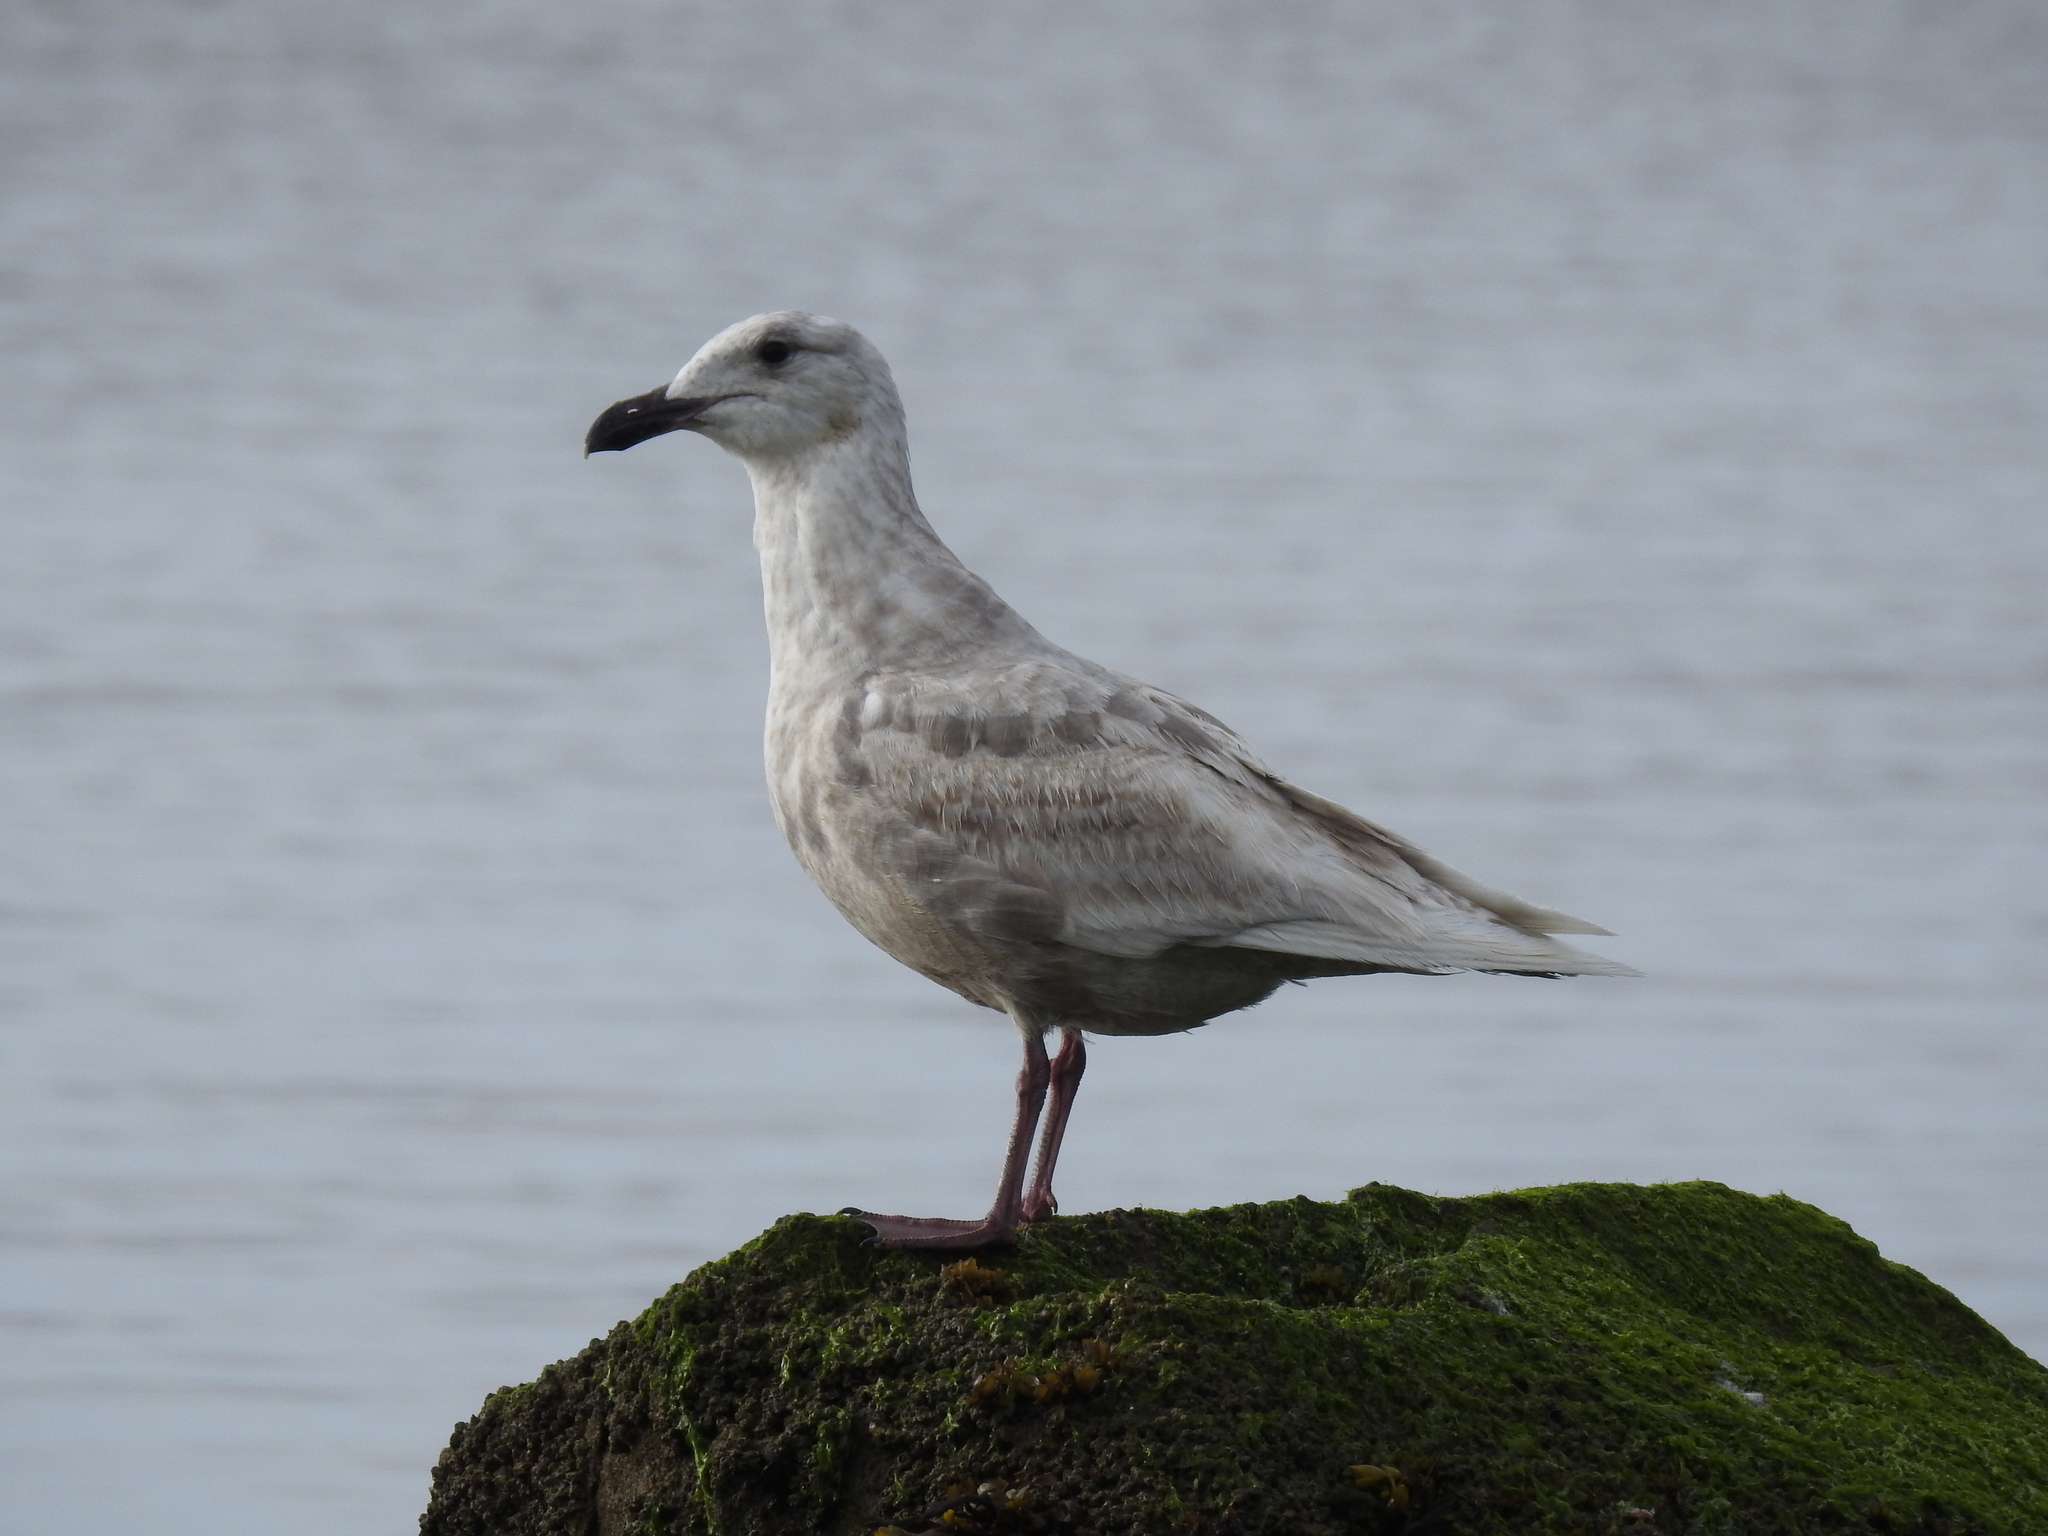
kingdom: Animalia
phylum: Chordata
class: Aves
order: Charadriiformes
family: Laridae
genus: Larus
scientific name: Larus glaucescens
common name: Glaucous-winged gull
